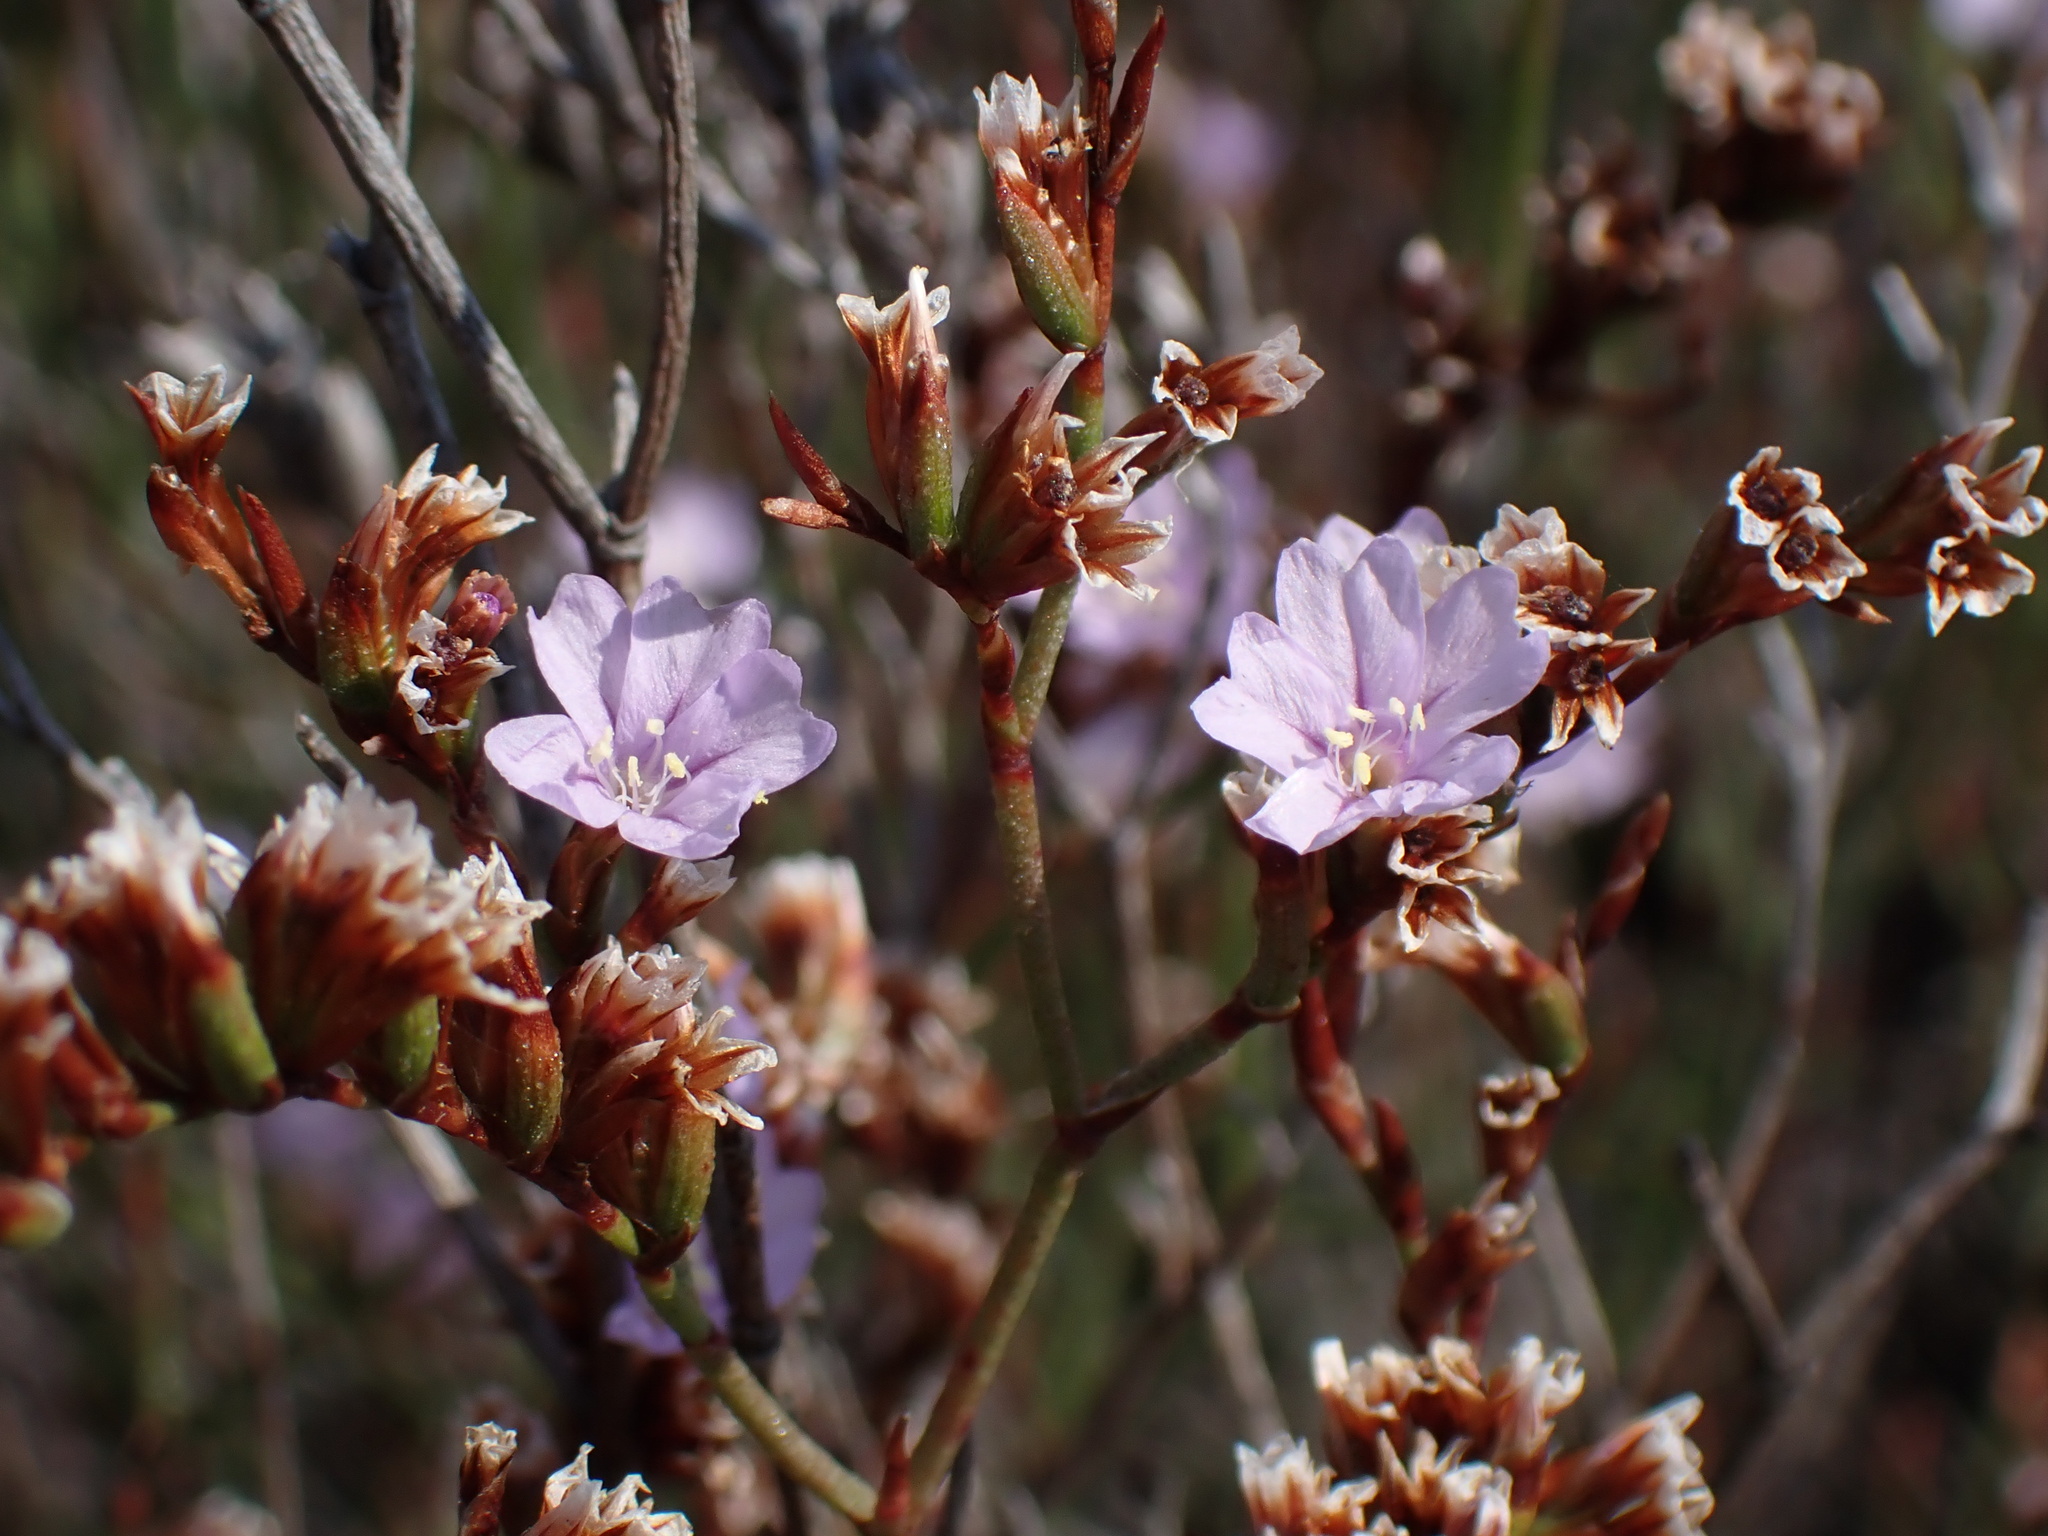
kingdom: Plantae
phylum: Tracheophyta
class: Magnoliopsida
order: Caryophyllales
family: Plumbaginaceae
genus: Limonium
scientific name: Limonium vulgare
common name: Common sea-lavender
